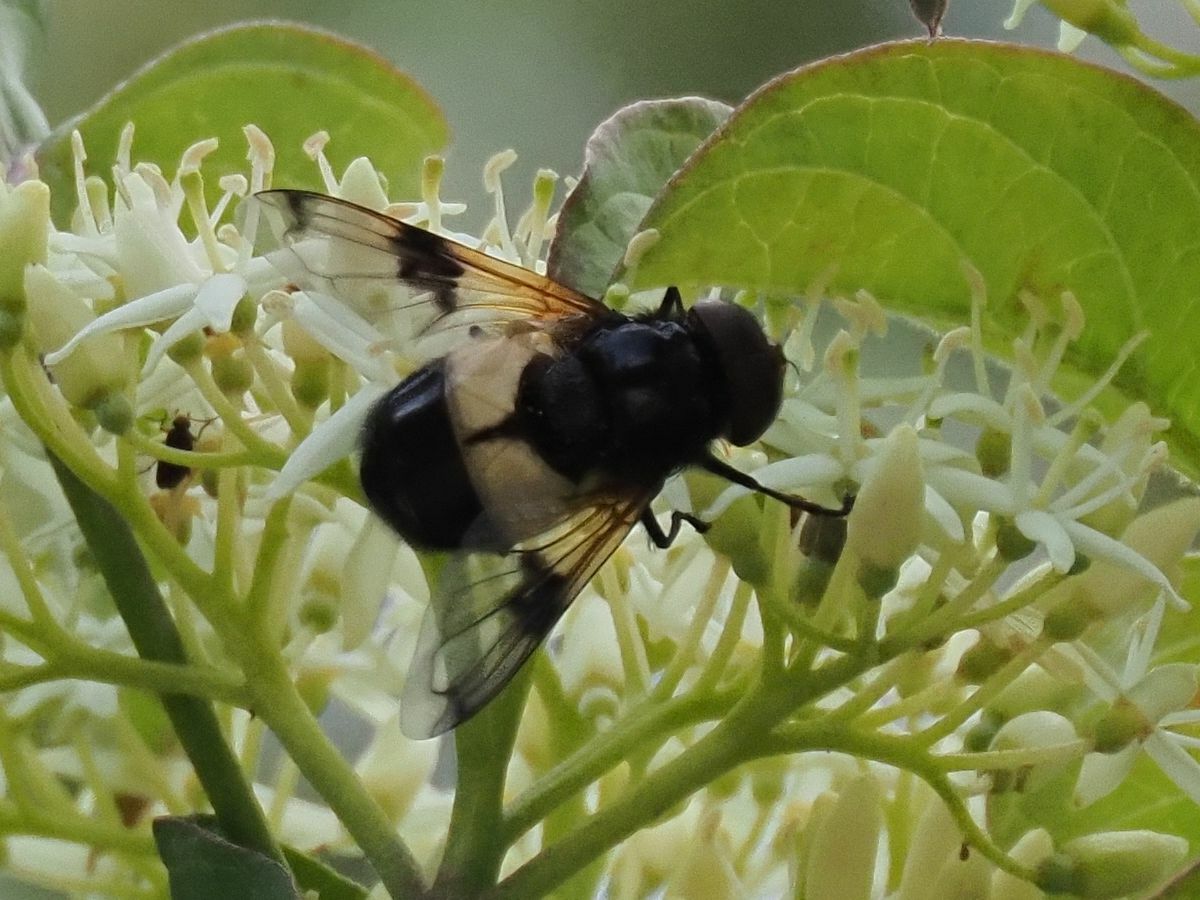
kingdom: Animalia
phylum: Arthropoda
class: Insecta
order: Diptera
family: Syrphidae
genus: Volucella
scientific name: Volucella pellucens
